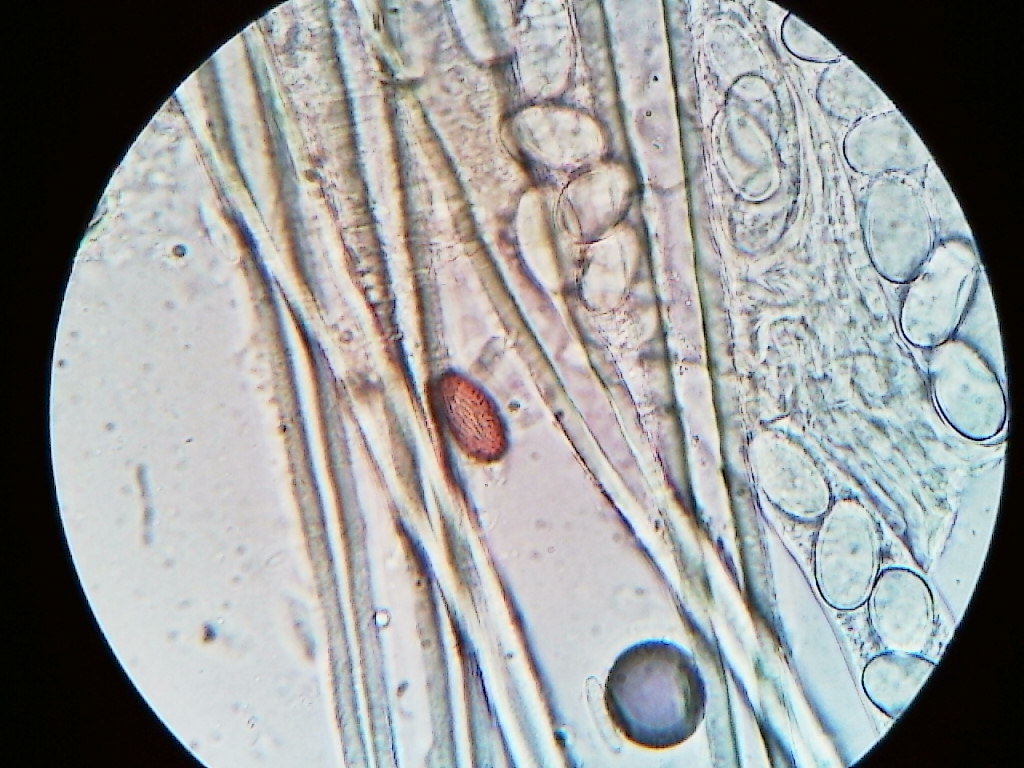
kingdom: Fungi
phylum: Ascomycota
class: Pezizomycetes
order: Pezizales
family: Ascodesmidaceae
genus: Lasiobolus
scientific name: Lasiobolus macrotrichus
